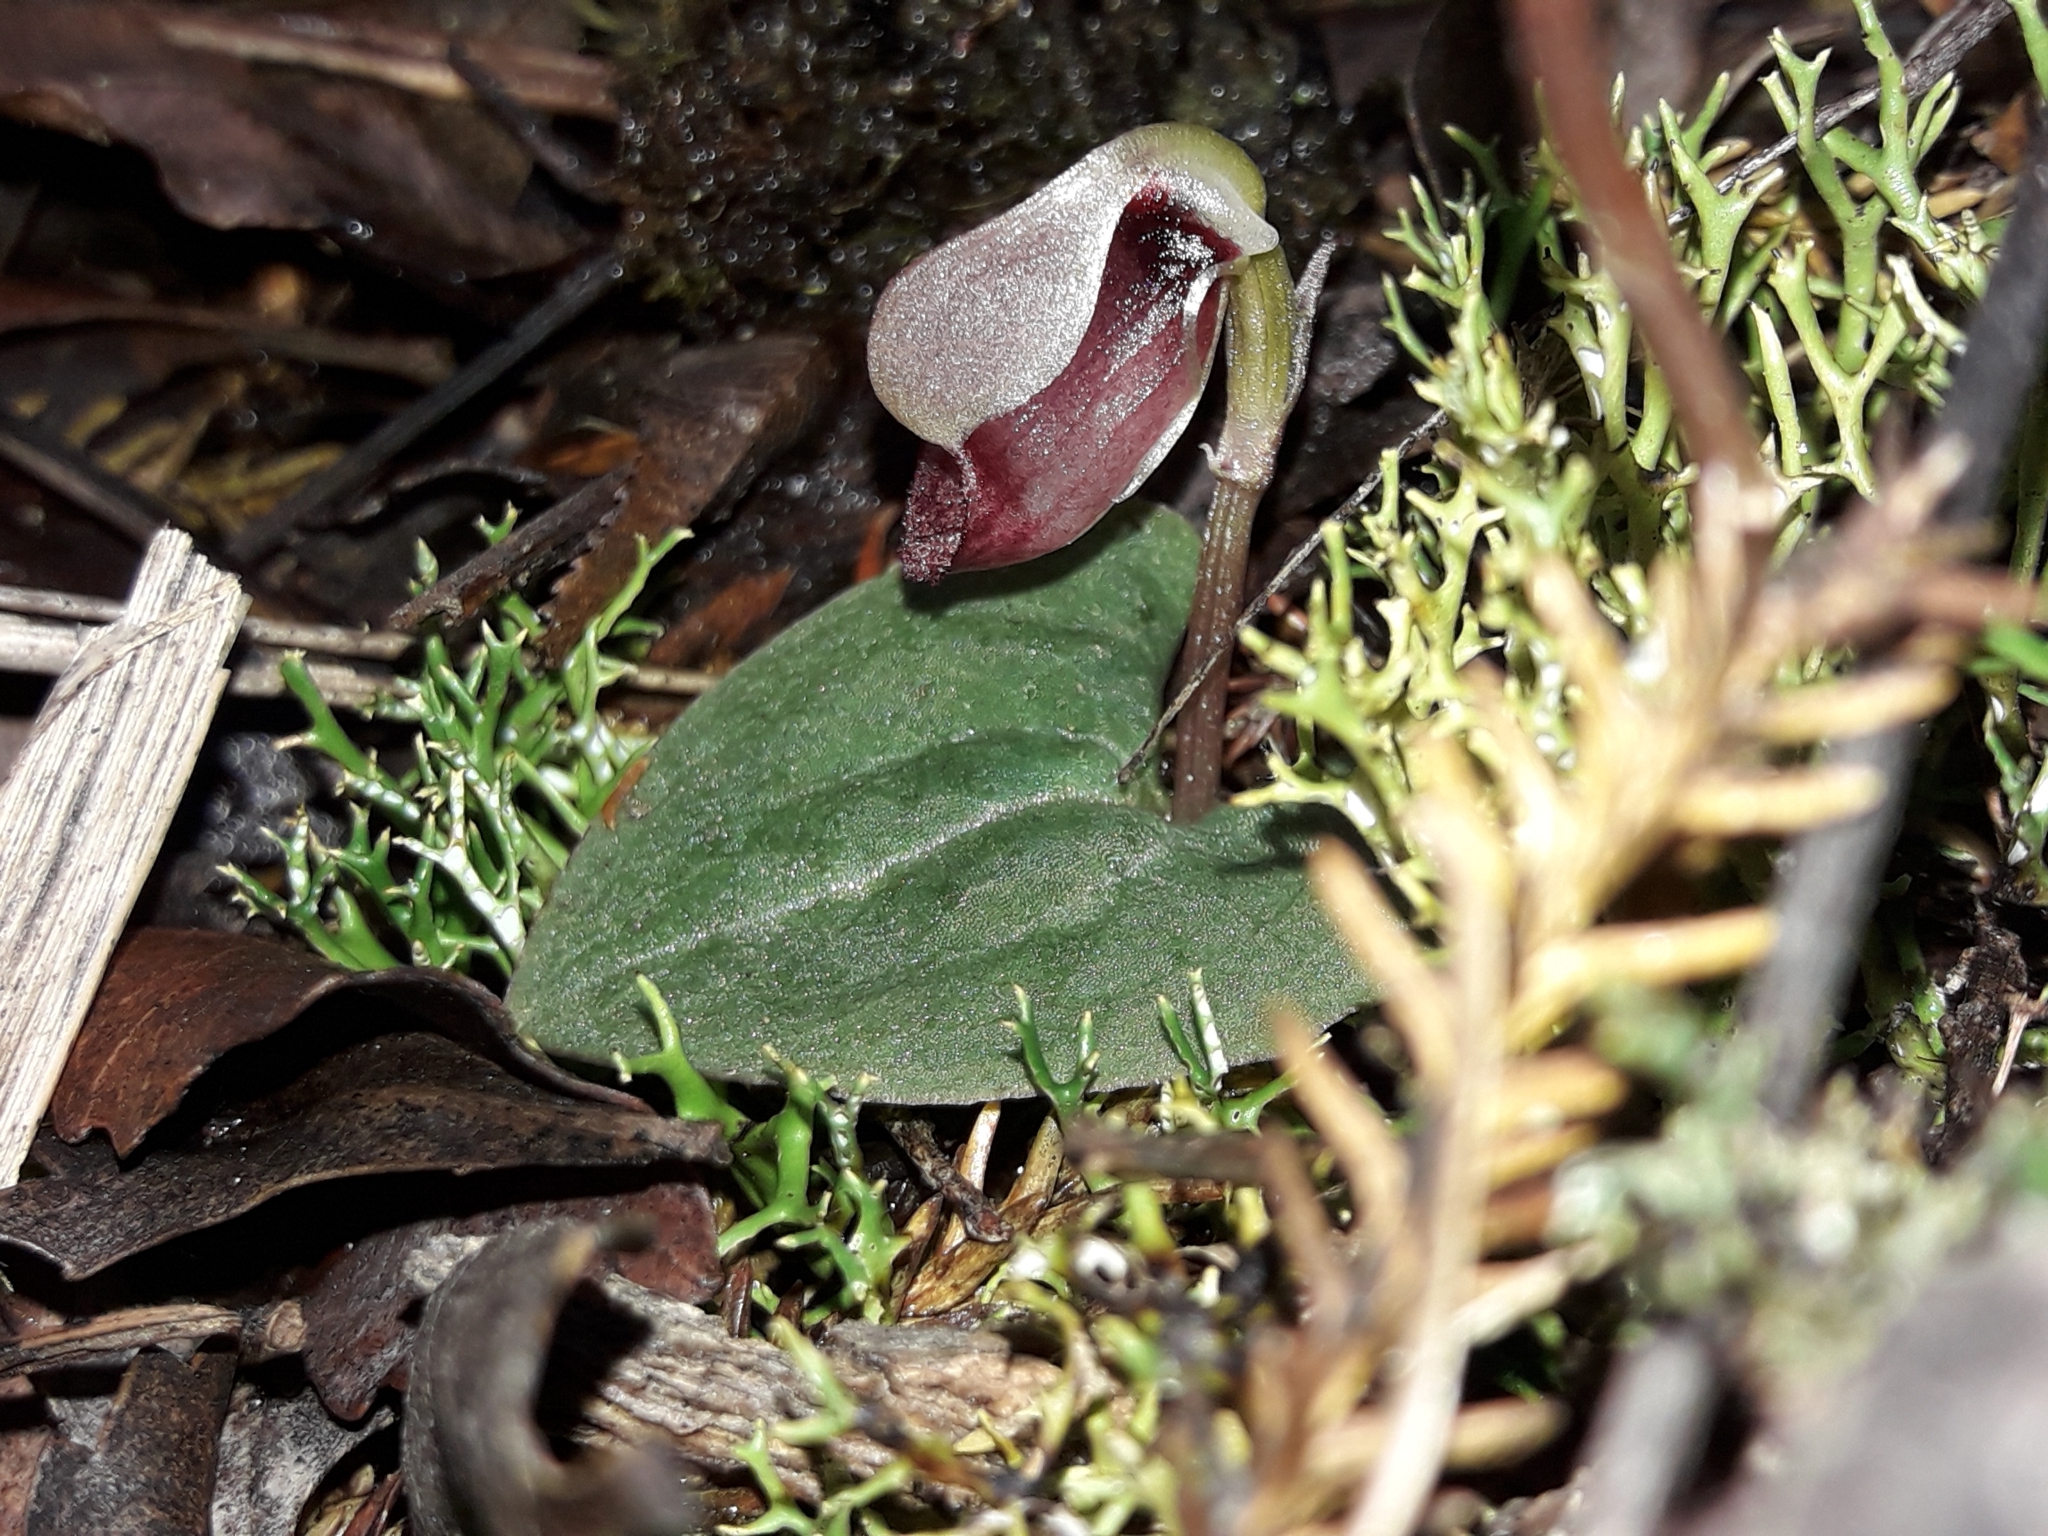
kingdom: Plantae
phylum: Tracheophyta
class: Liliopsida
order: Asparagales
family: Orchidaceae
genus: Corybas
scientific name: Corybas rotundifolius
